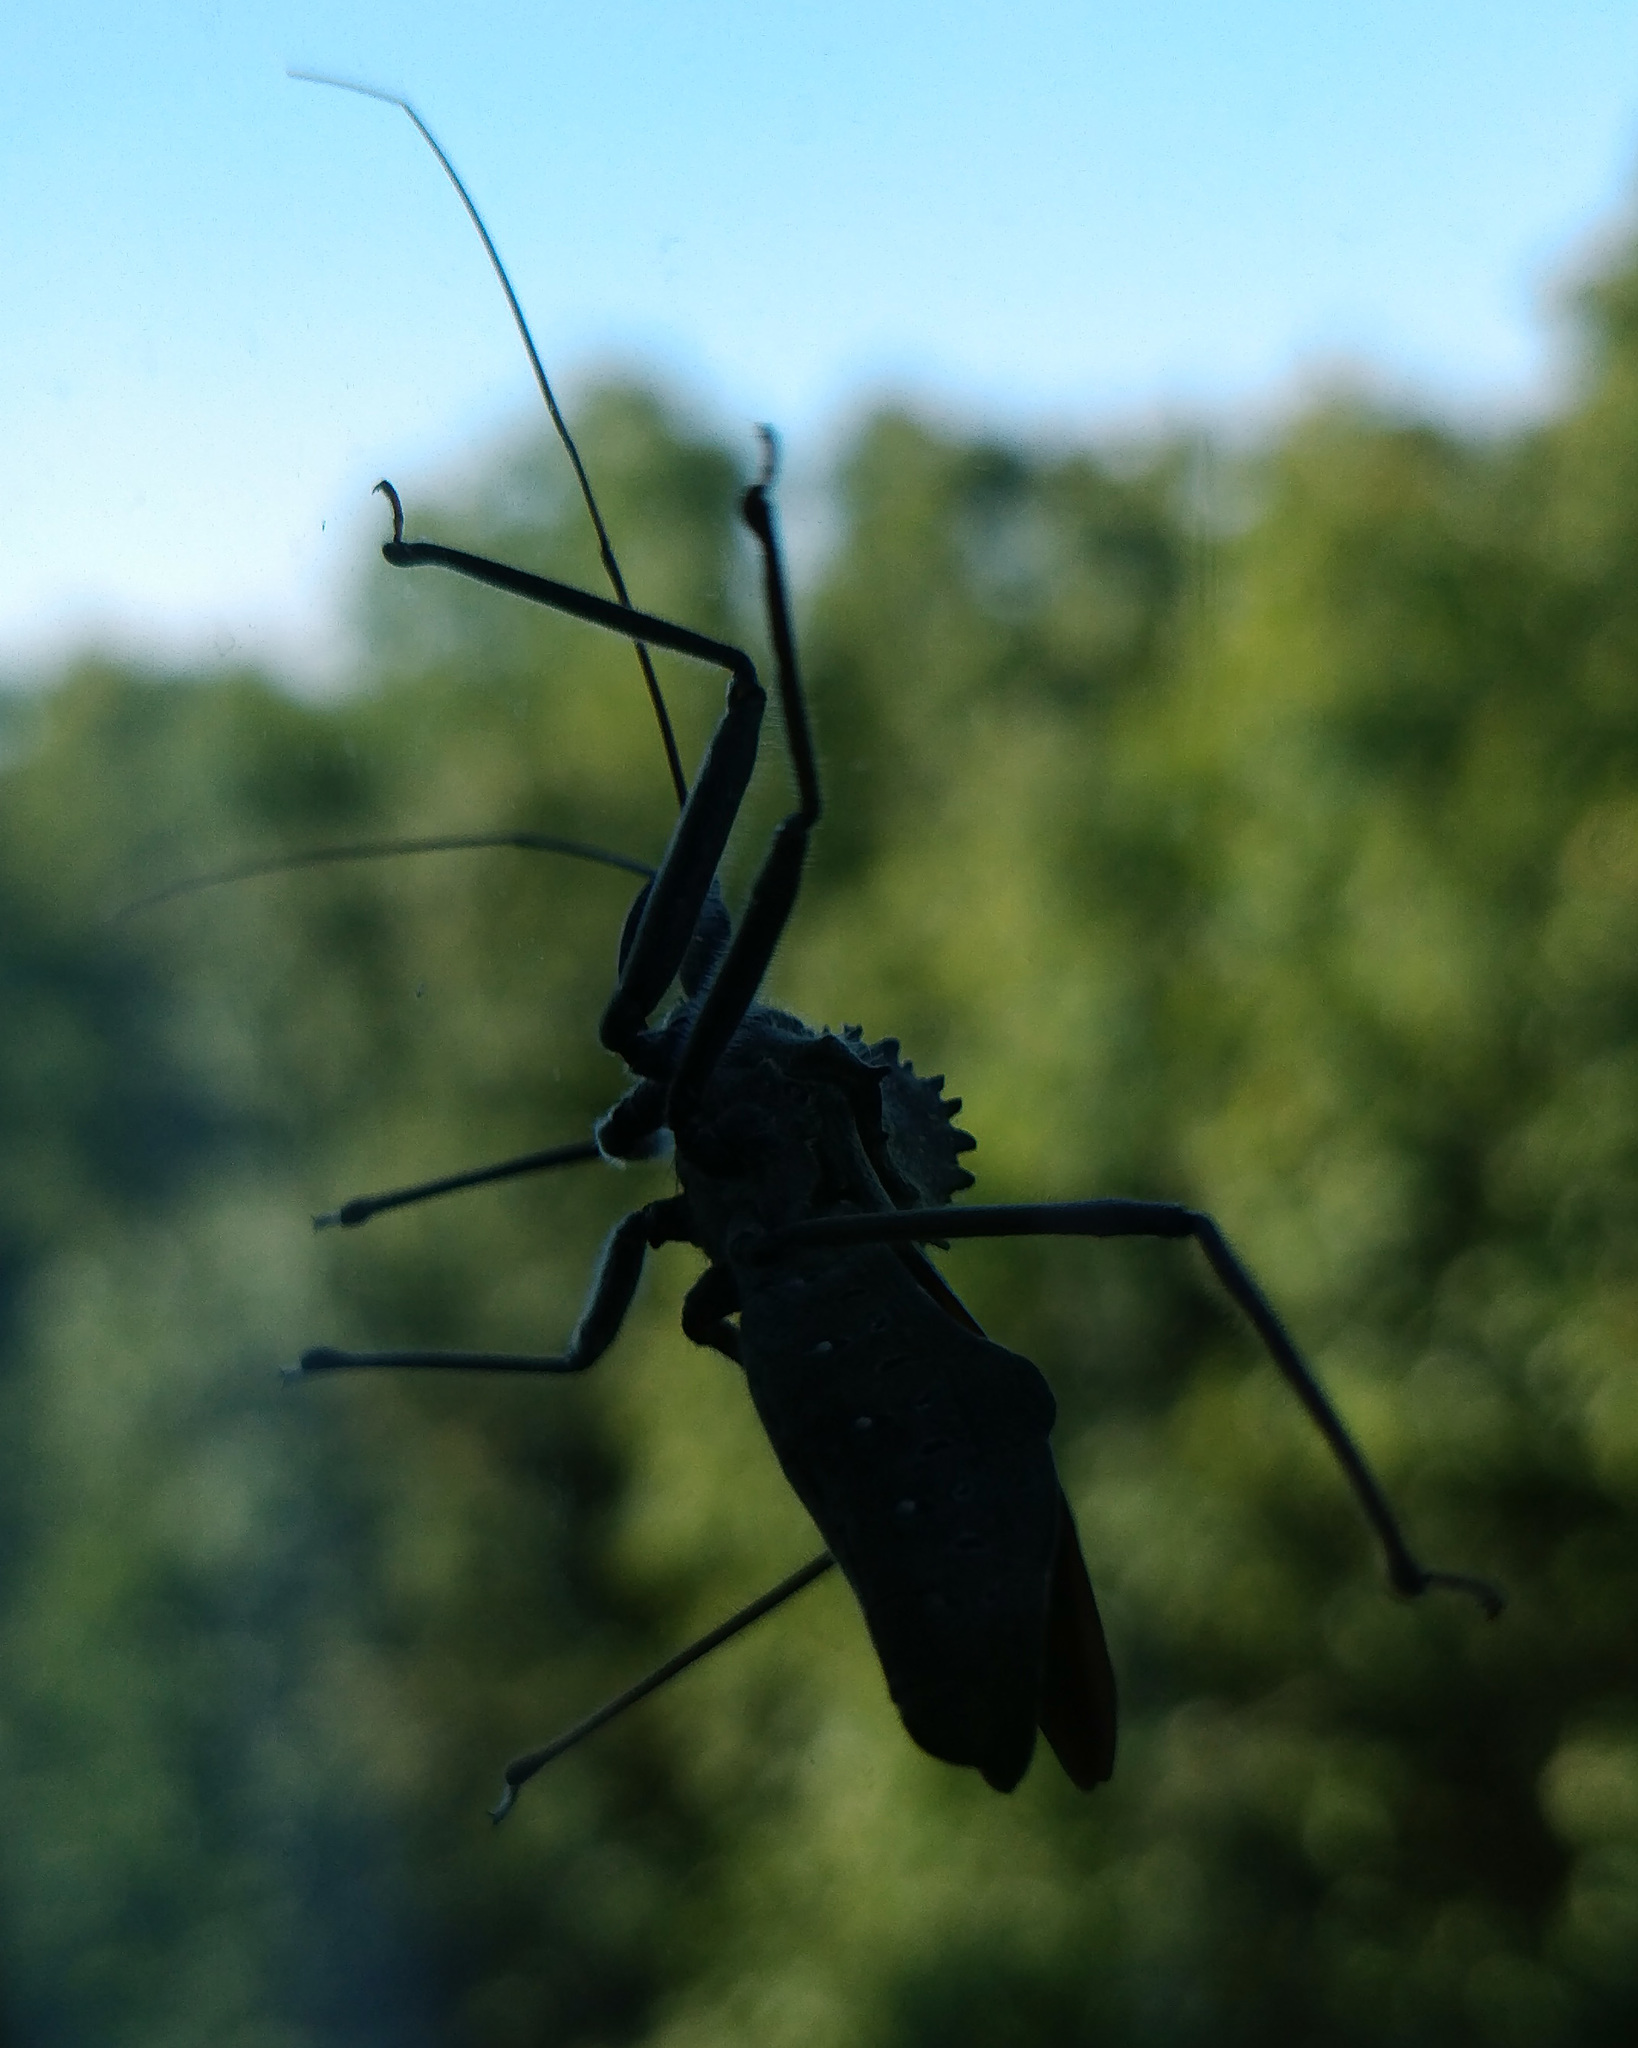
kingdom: Animalia
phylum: Arthropoda
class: Insecta
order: Hemiptera
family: Reduviidae
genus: Arilus
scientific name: Arilus cristatus
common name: North american wheel bug
